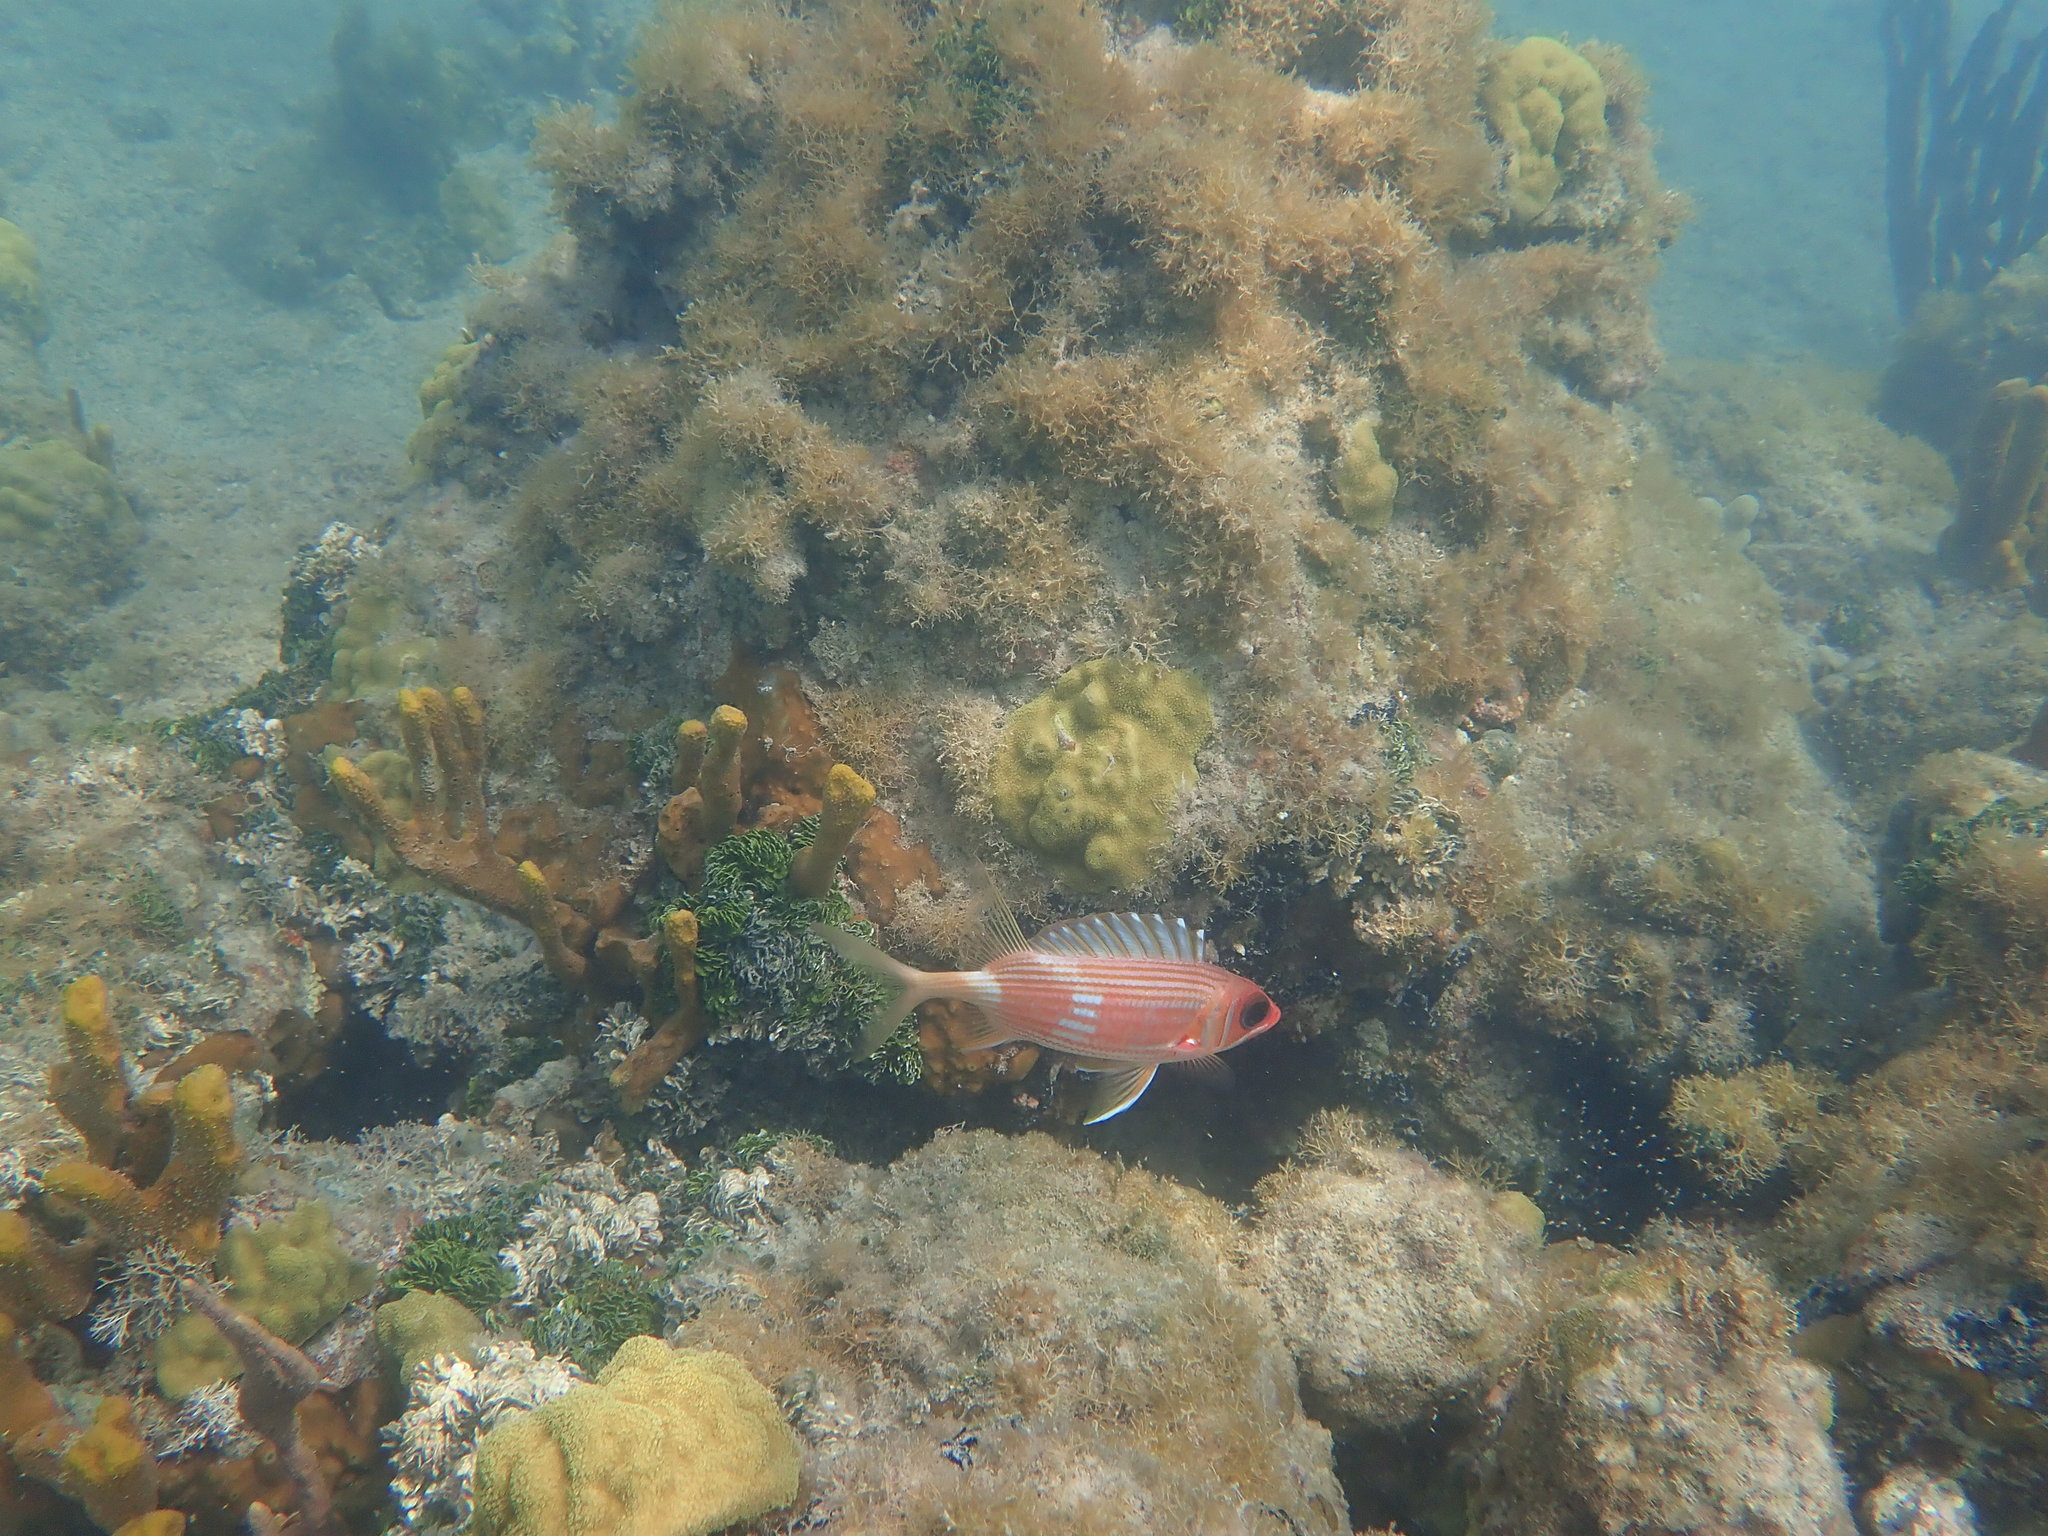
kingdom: Animalia
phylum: Chordata
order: Beryciformes
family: Holocentridae
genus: Holocentrus
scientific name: Holocentrus rufus
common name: Longspine squirrelfish
